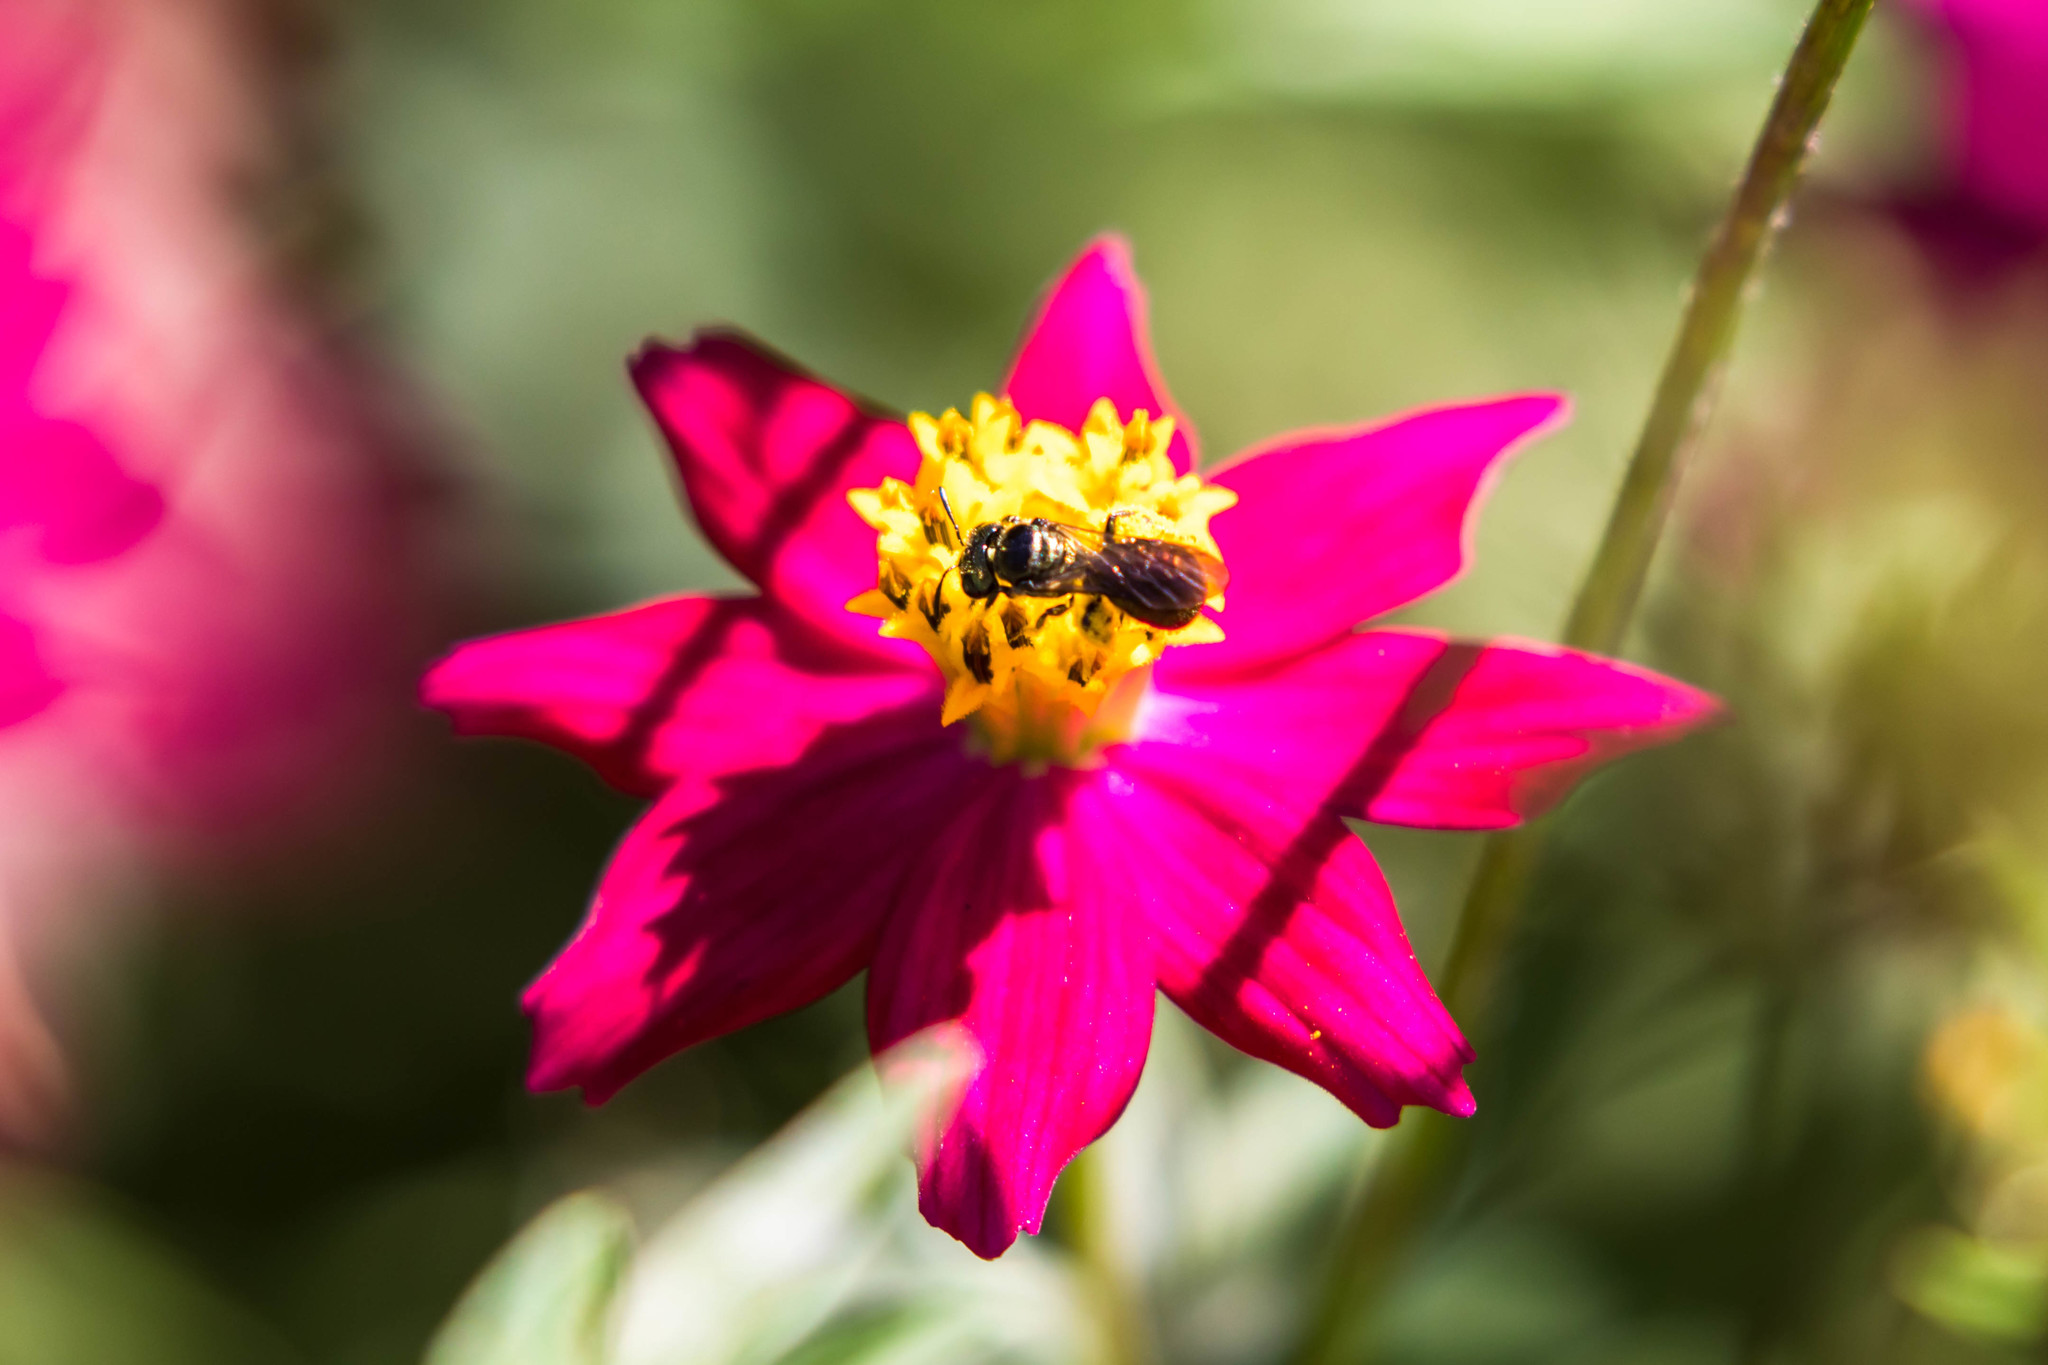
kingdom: Animalia
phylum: Arthropoda
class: Insecta
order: Hymenoptera
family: Apidae
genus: Ceratina
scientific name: Ceratina
